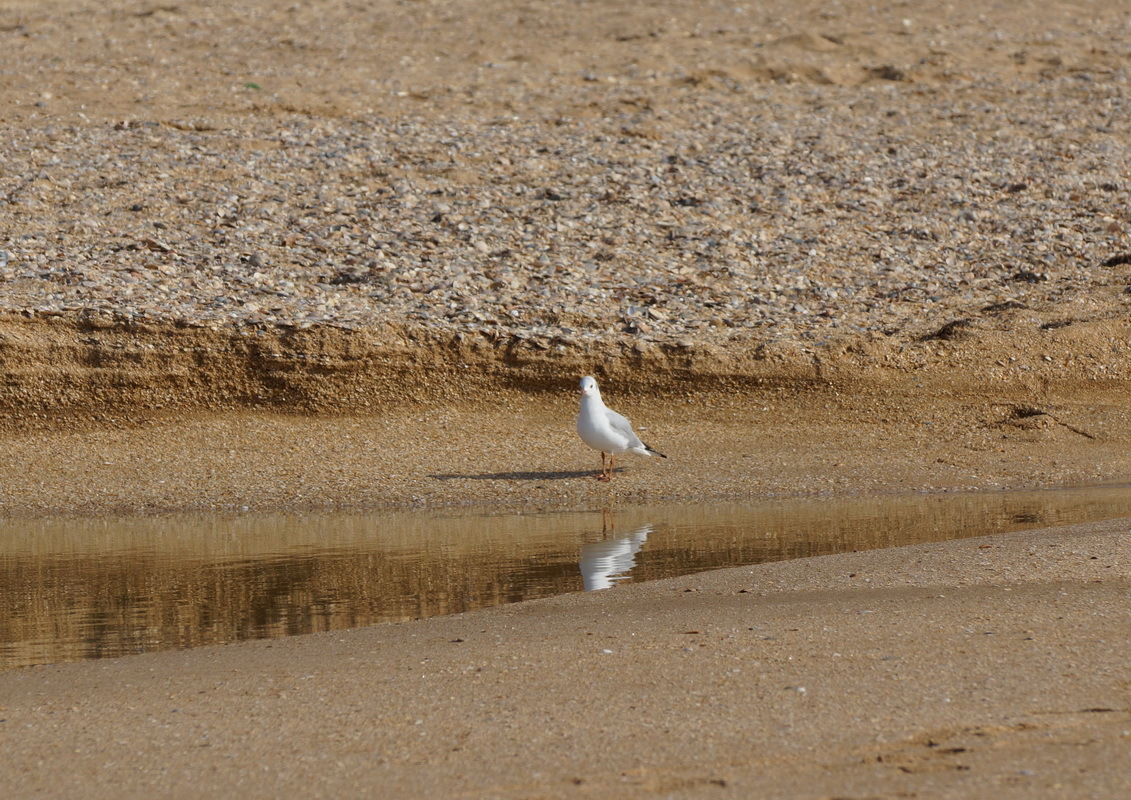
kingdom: Animalia
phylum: Chordata
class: Aves
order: Charadriiformes
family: Laridae
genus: Chroicocephalus
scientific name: Chroicocephalus ridibundus
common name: Black-headed gull
